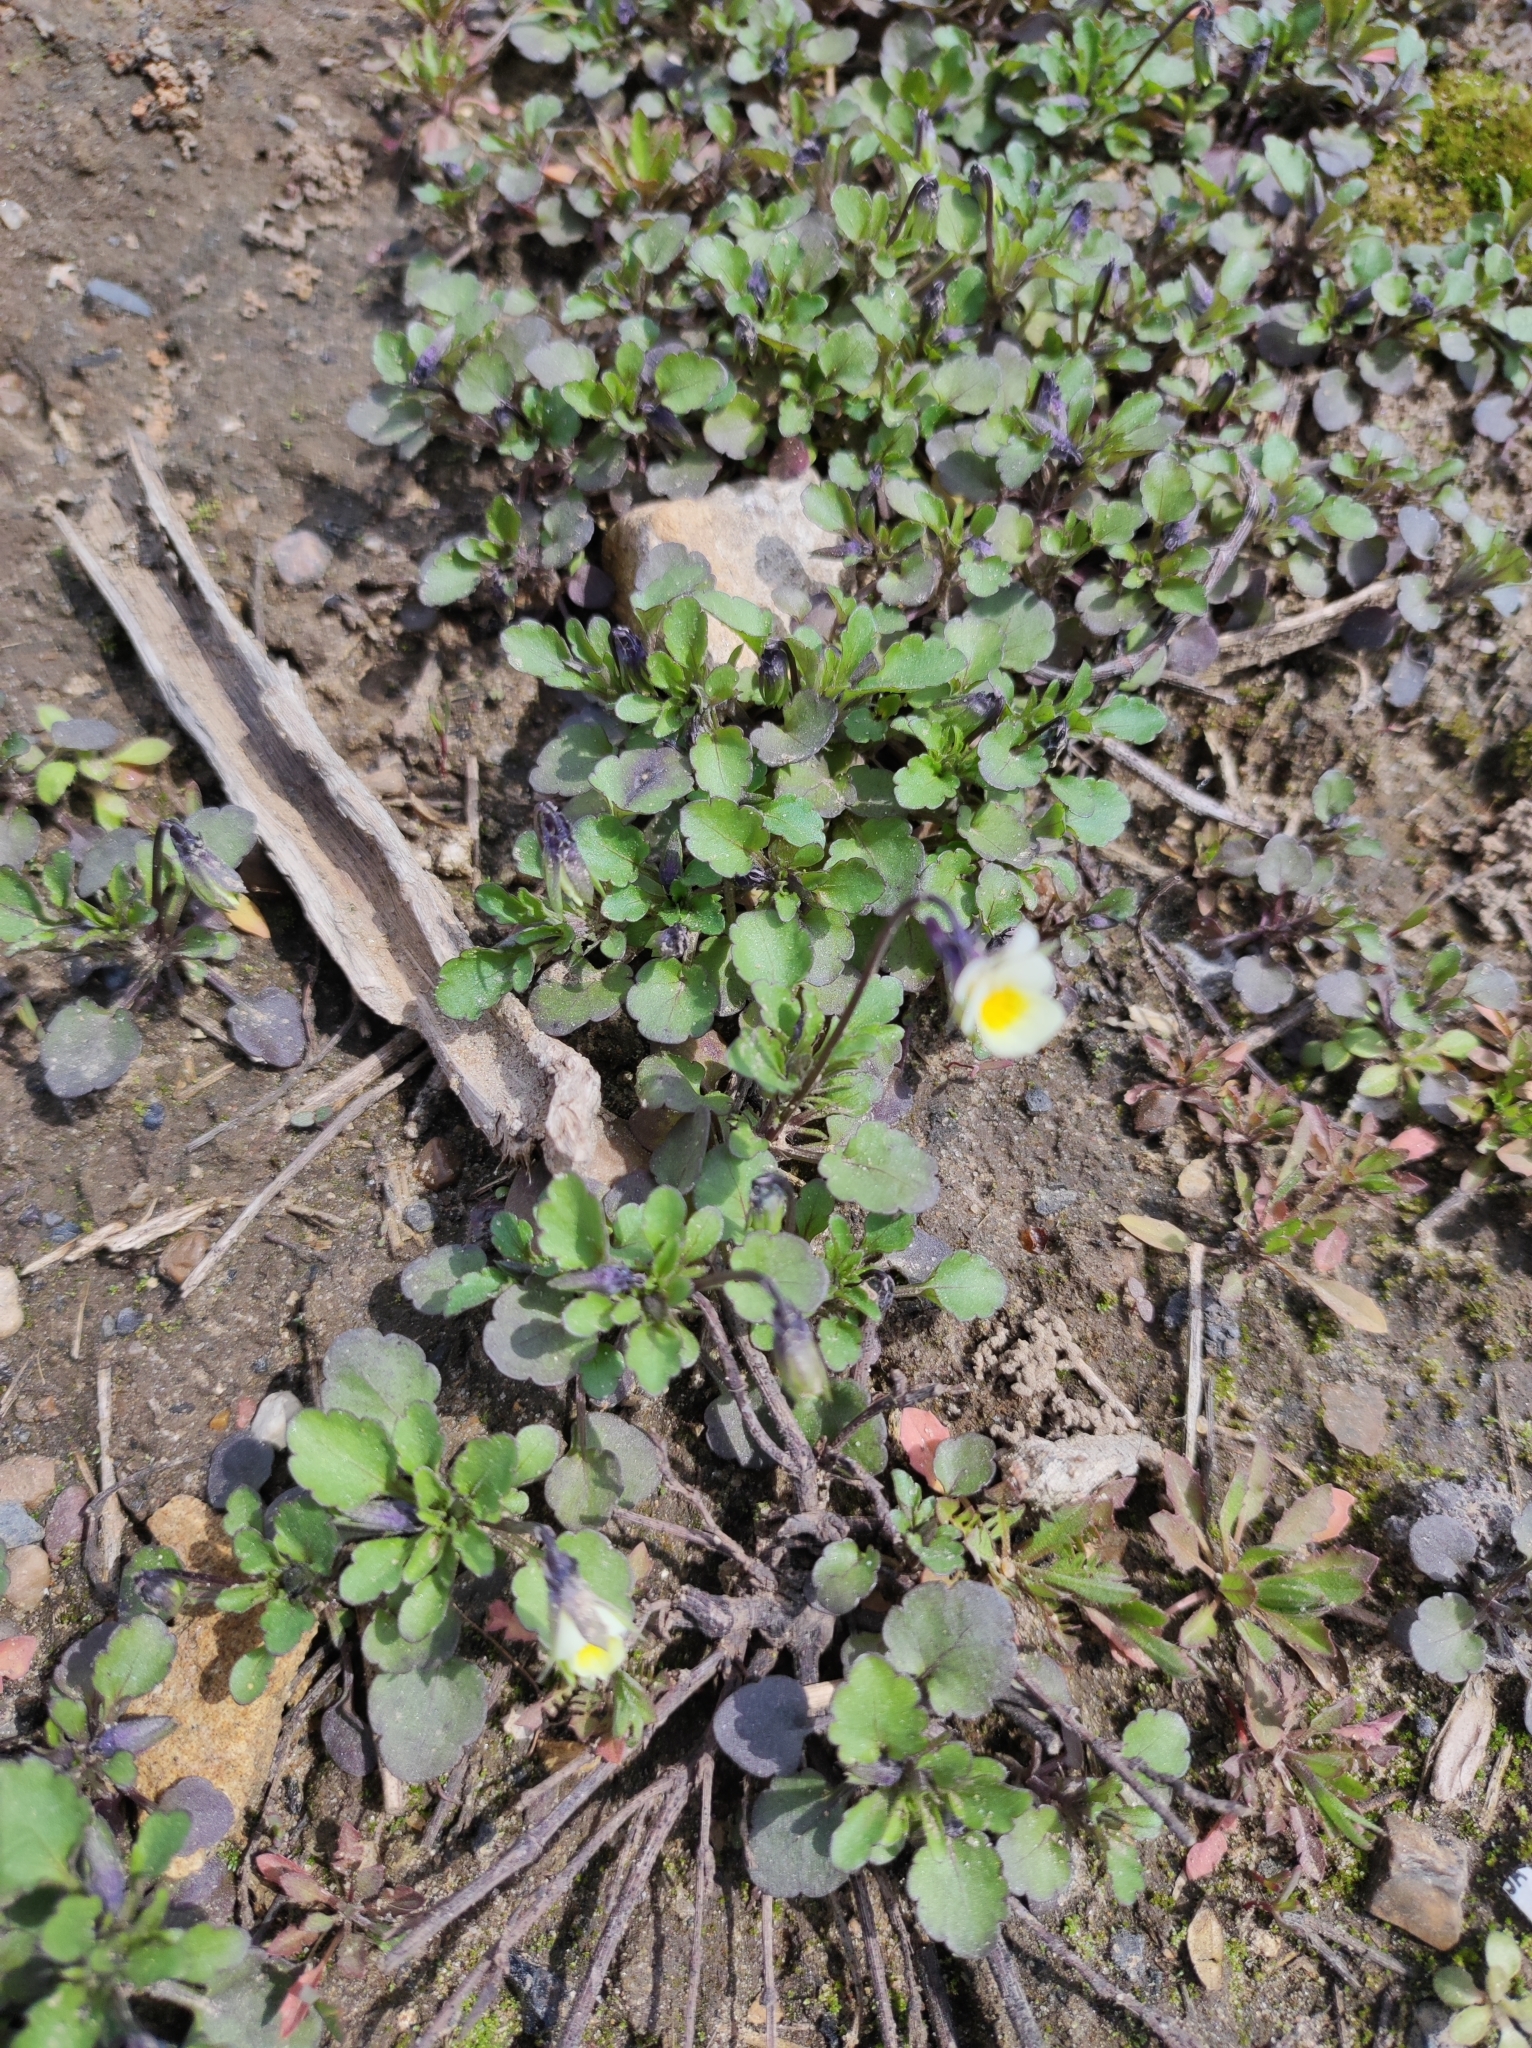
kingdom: Plantae
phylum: Tracheophyta
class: Magnoliopsida
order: Malpighiales
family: Violaceae
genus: Viola
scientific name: Viola arvensis
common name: Field pansy
